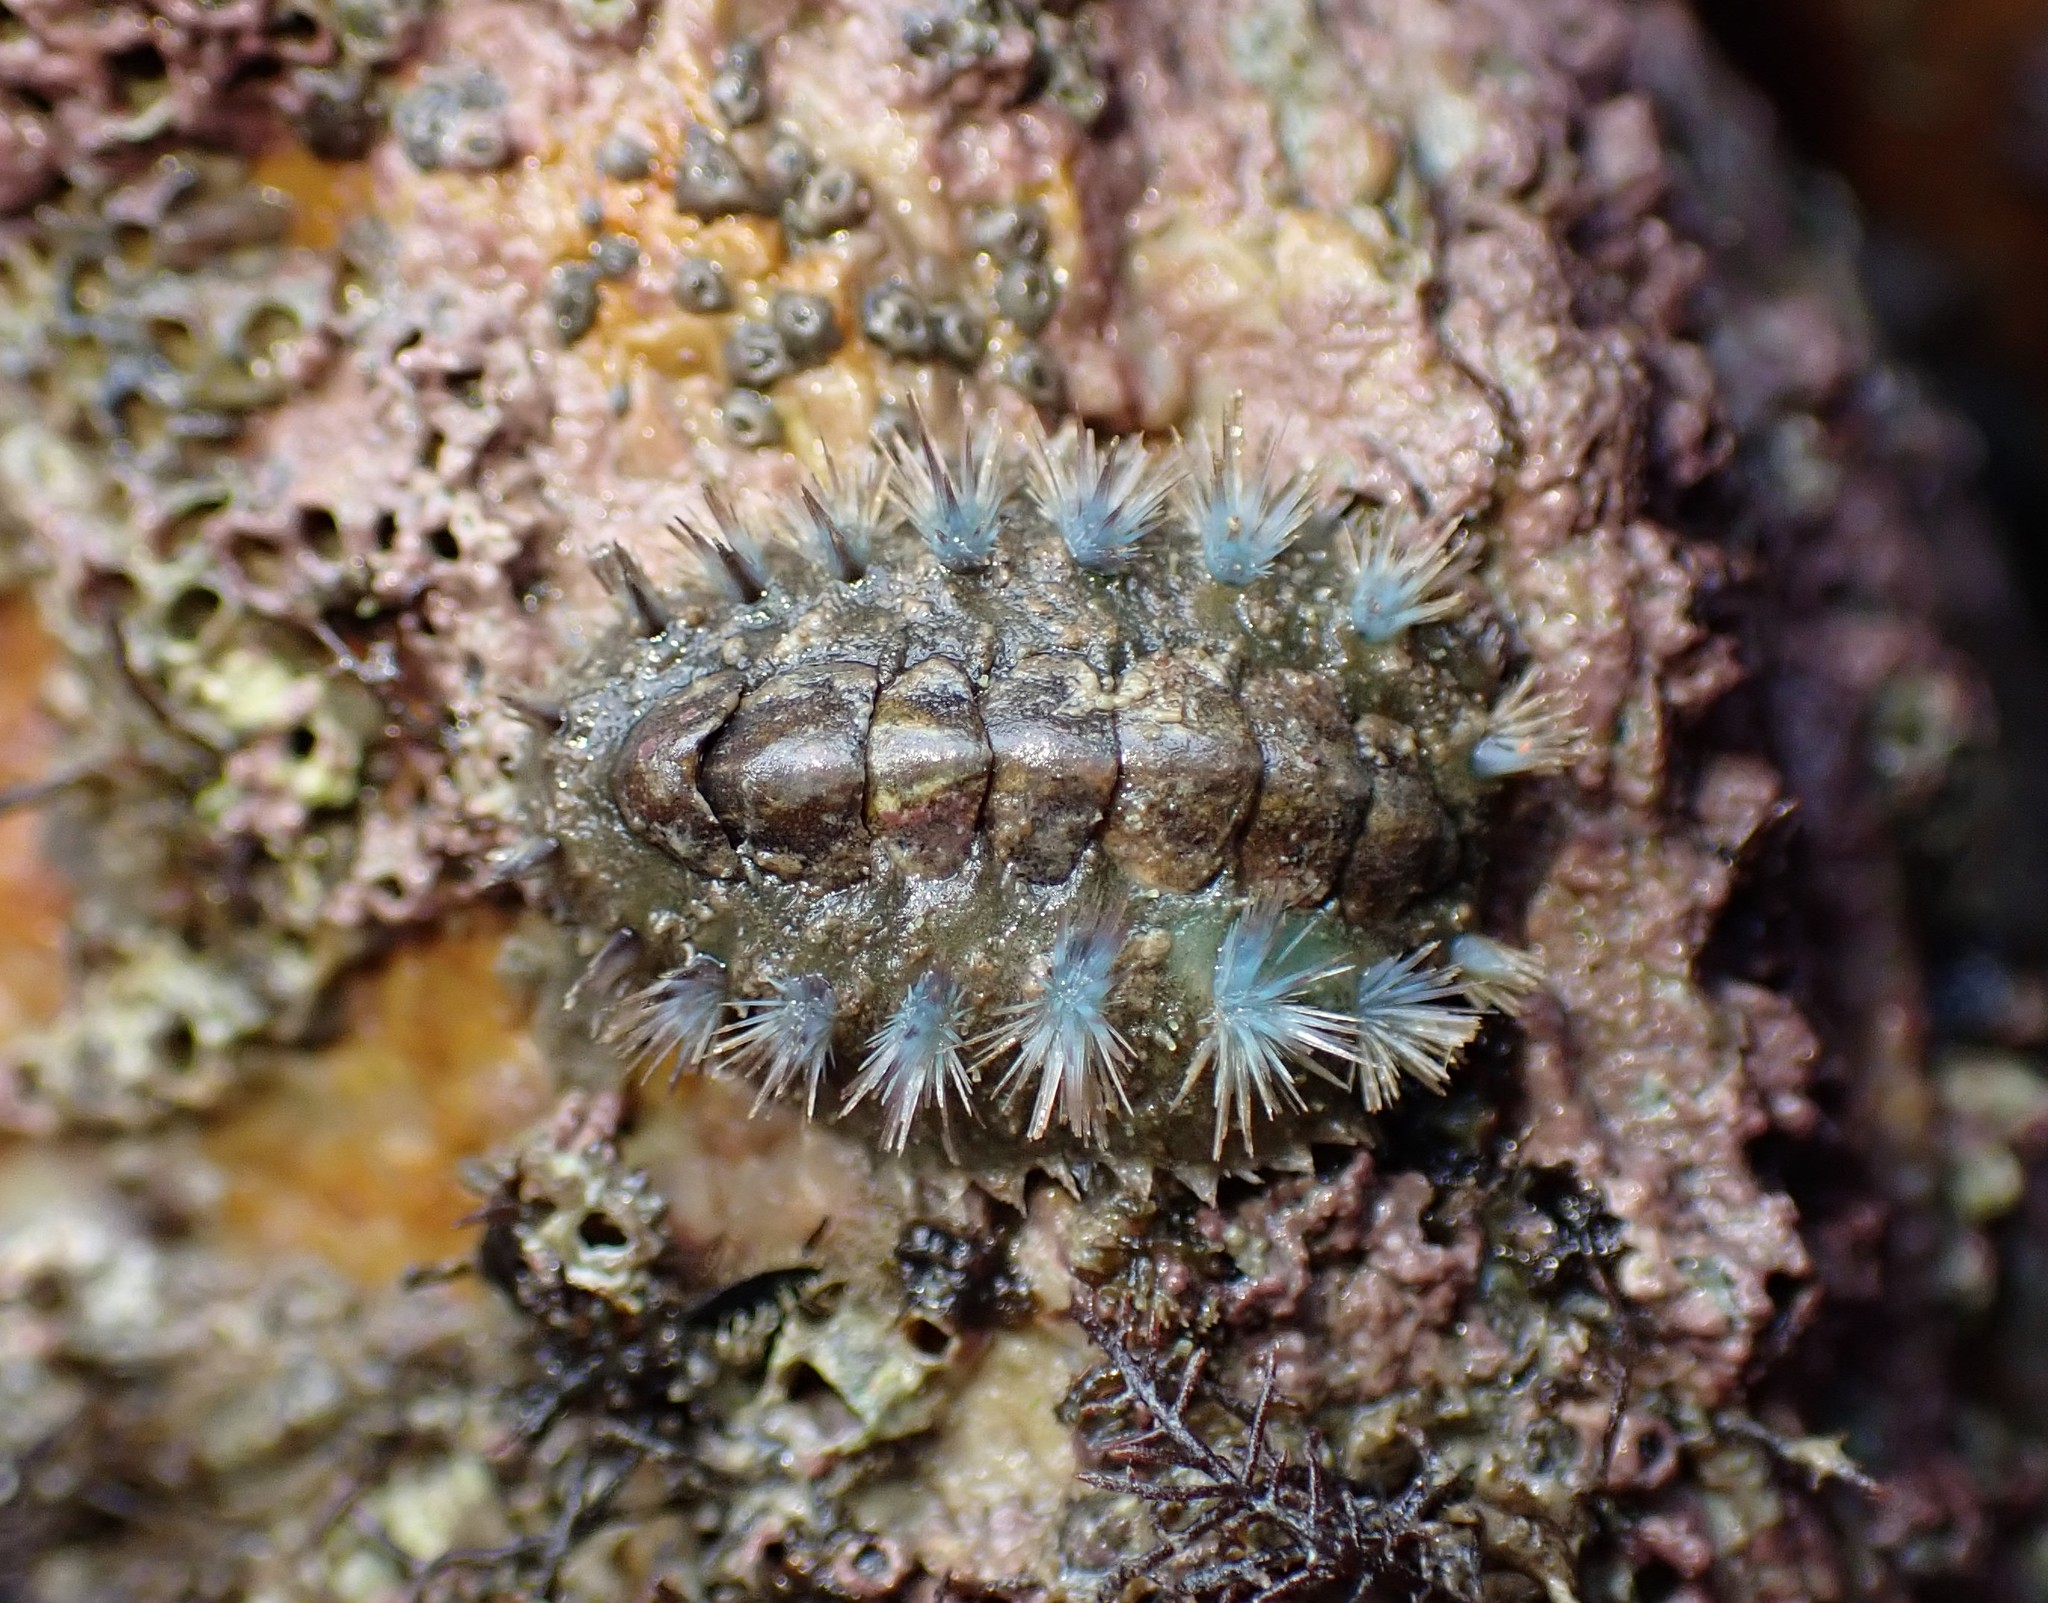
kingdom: Animalia
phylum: Mollusca
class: Polyplacophora
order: Chitonida
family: Acanthochitonidae
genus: Acanthochitona
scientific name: Acanthochitona zelandica
